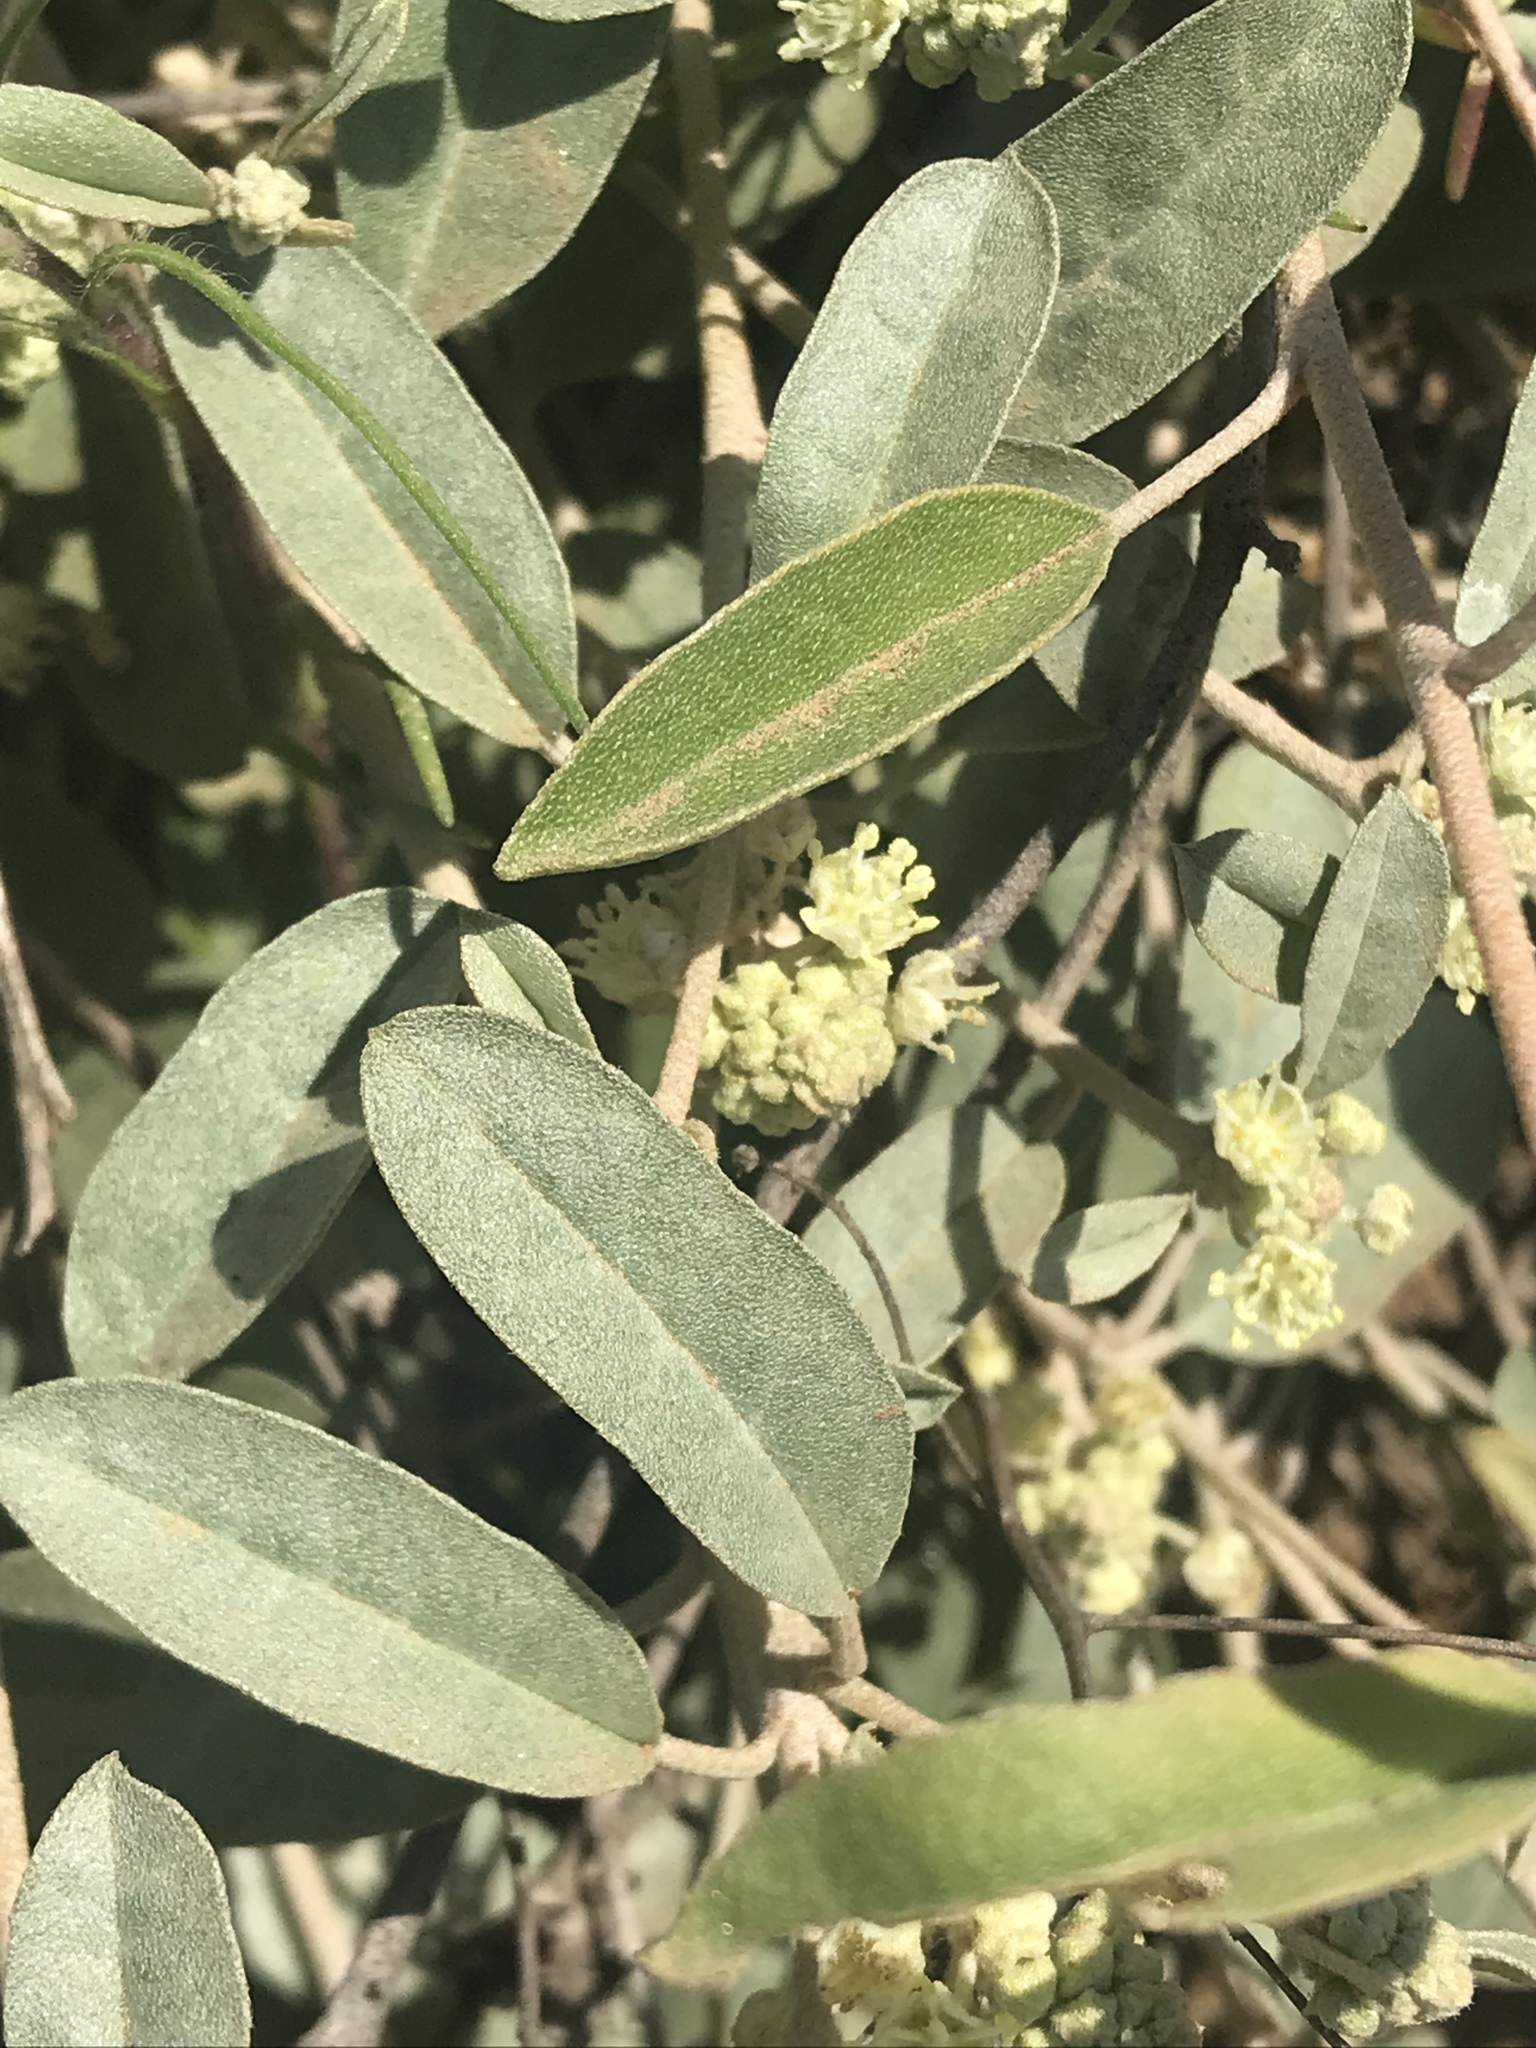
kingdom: Plantae
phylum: Tracheophyta
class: Magnoliopsida
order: Malpighiales
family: Euphorbiaceae
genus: Croton
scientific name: Croton californicus
